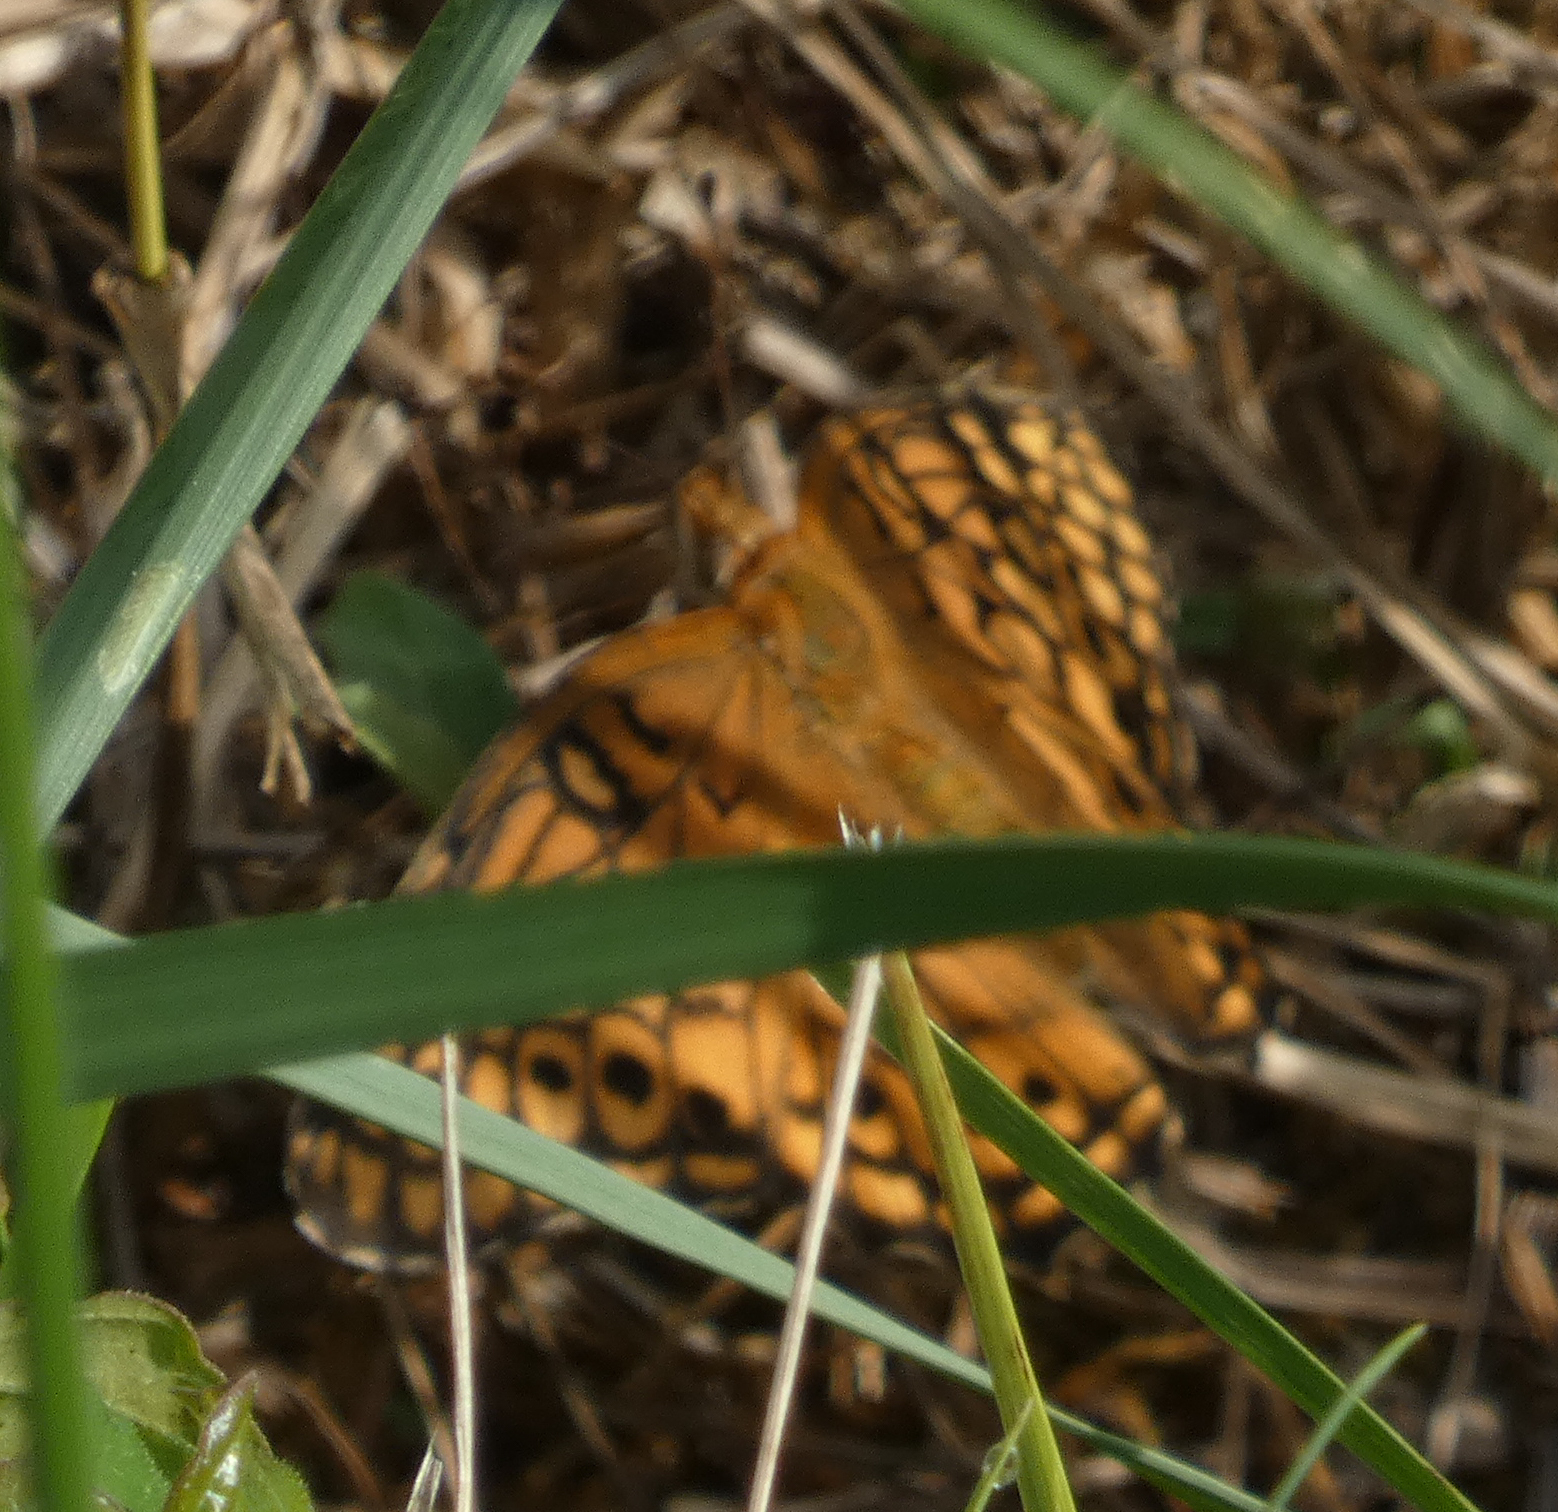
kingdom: Animalia
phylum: Arthropoda
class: Insecta
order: Lepidoptera
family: Nymphalidae
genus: Euptoieta
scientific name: Euptoieta claudia
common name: Variegated fritillary
